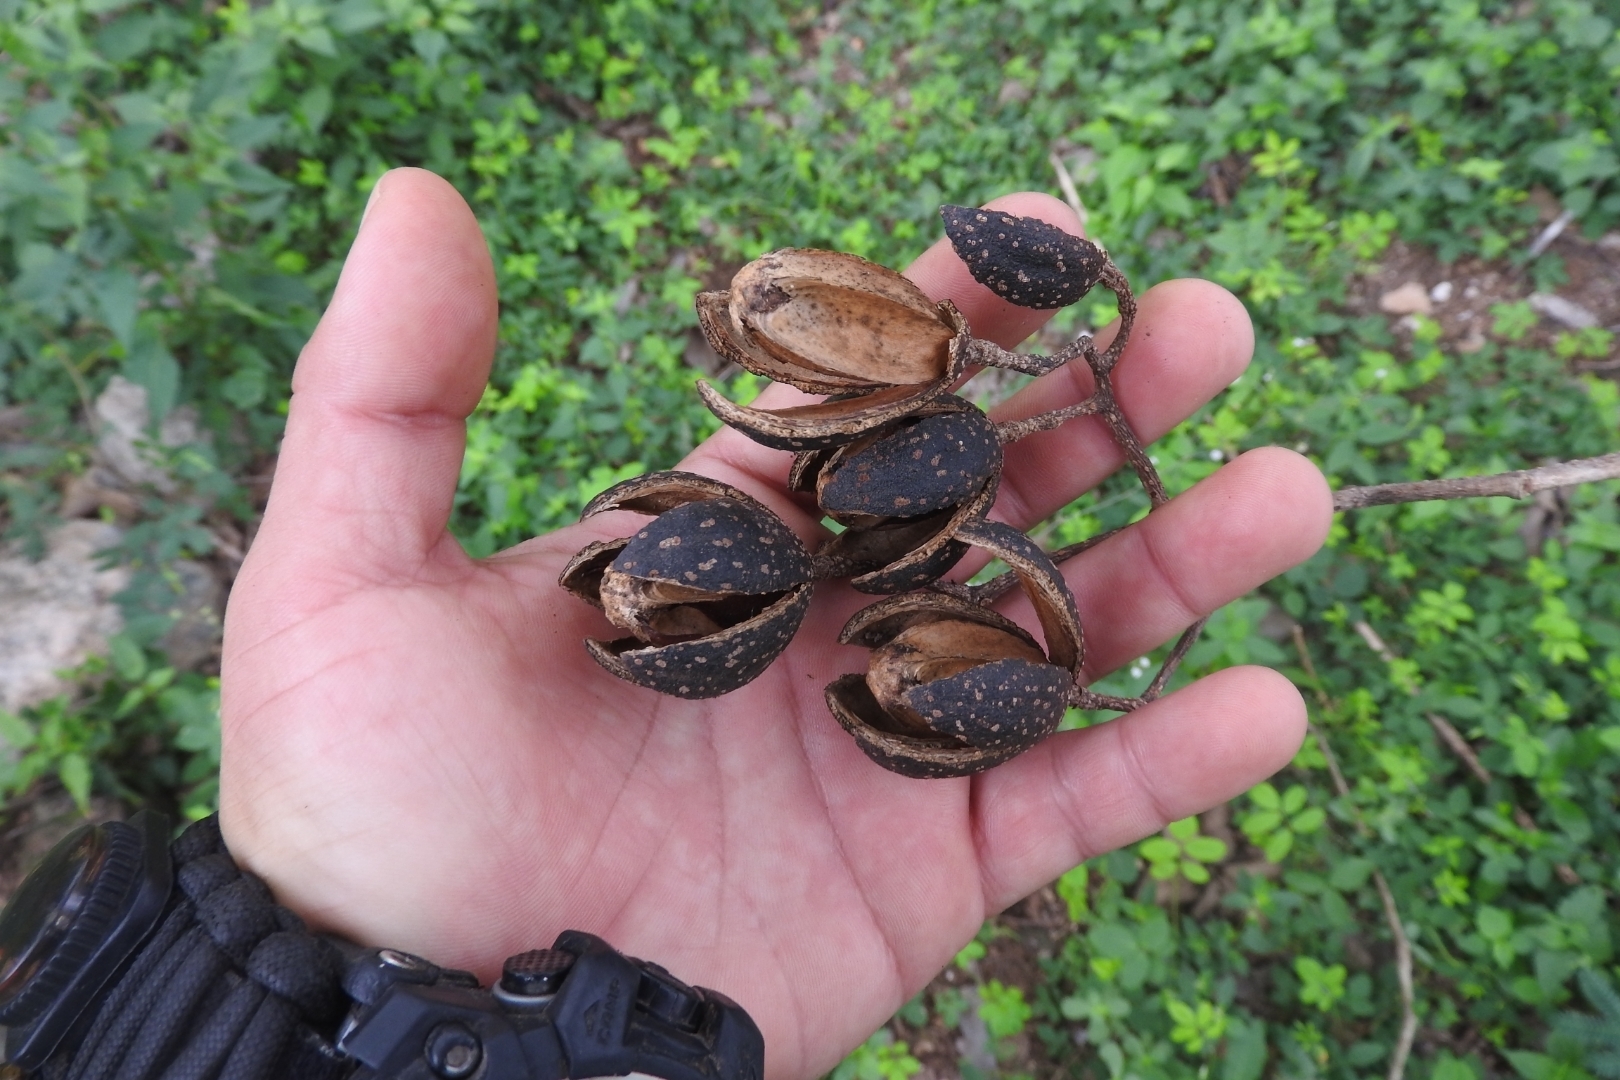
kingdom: Plantae
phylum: Tracheophyta
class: Magnoliopsida
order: Sapindales
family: Meliaceae
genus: Cedrela
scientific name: Cedrela odorata
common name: Red cedar
